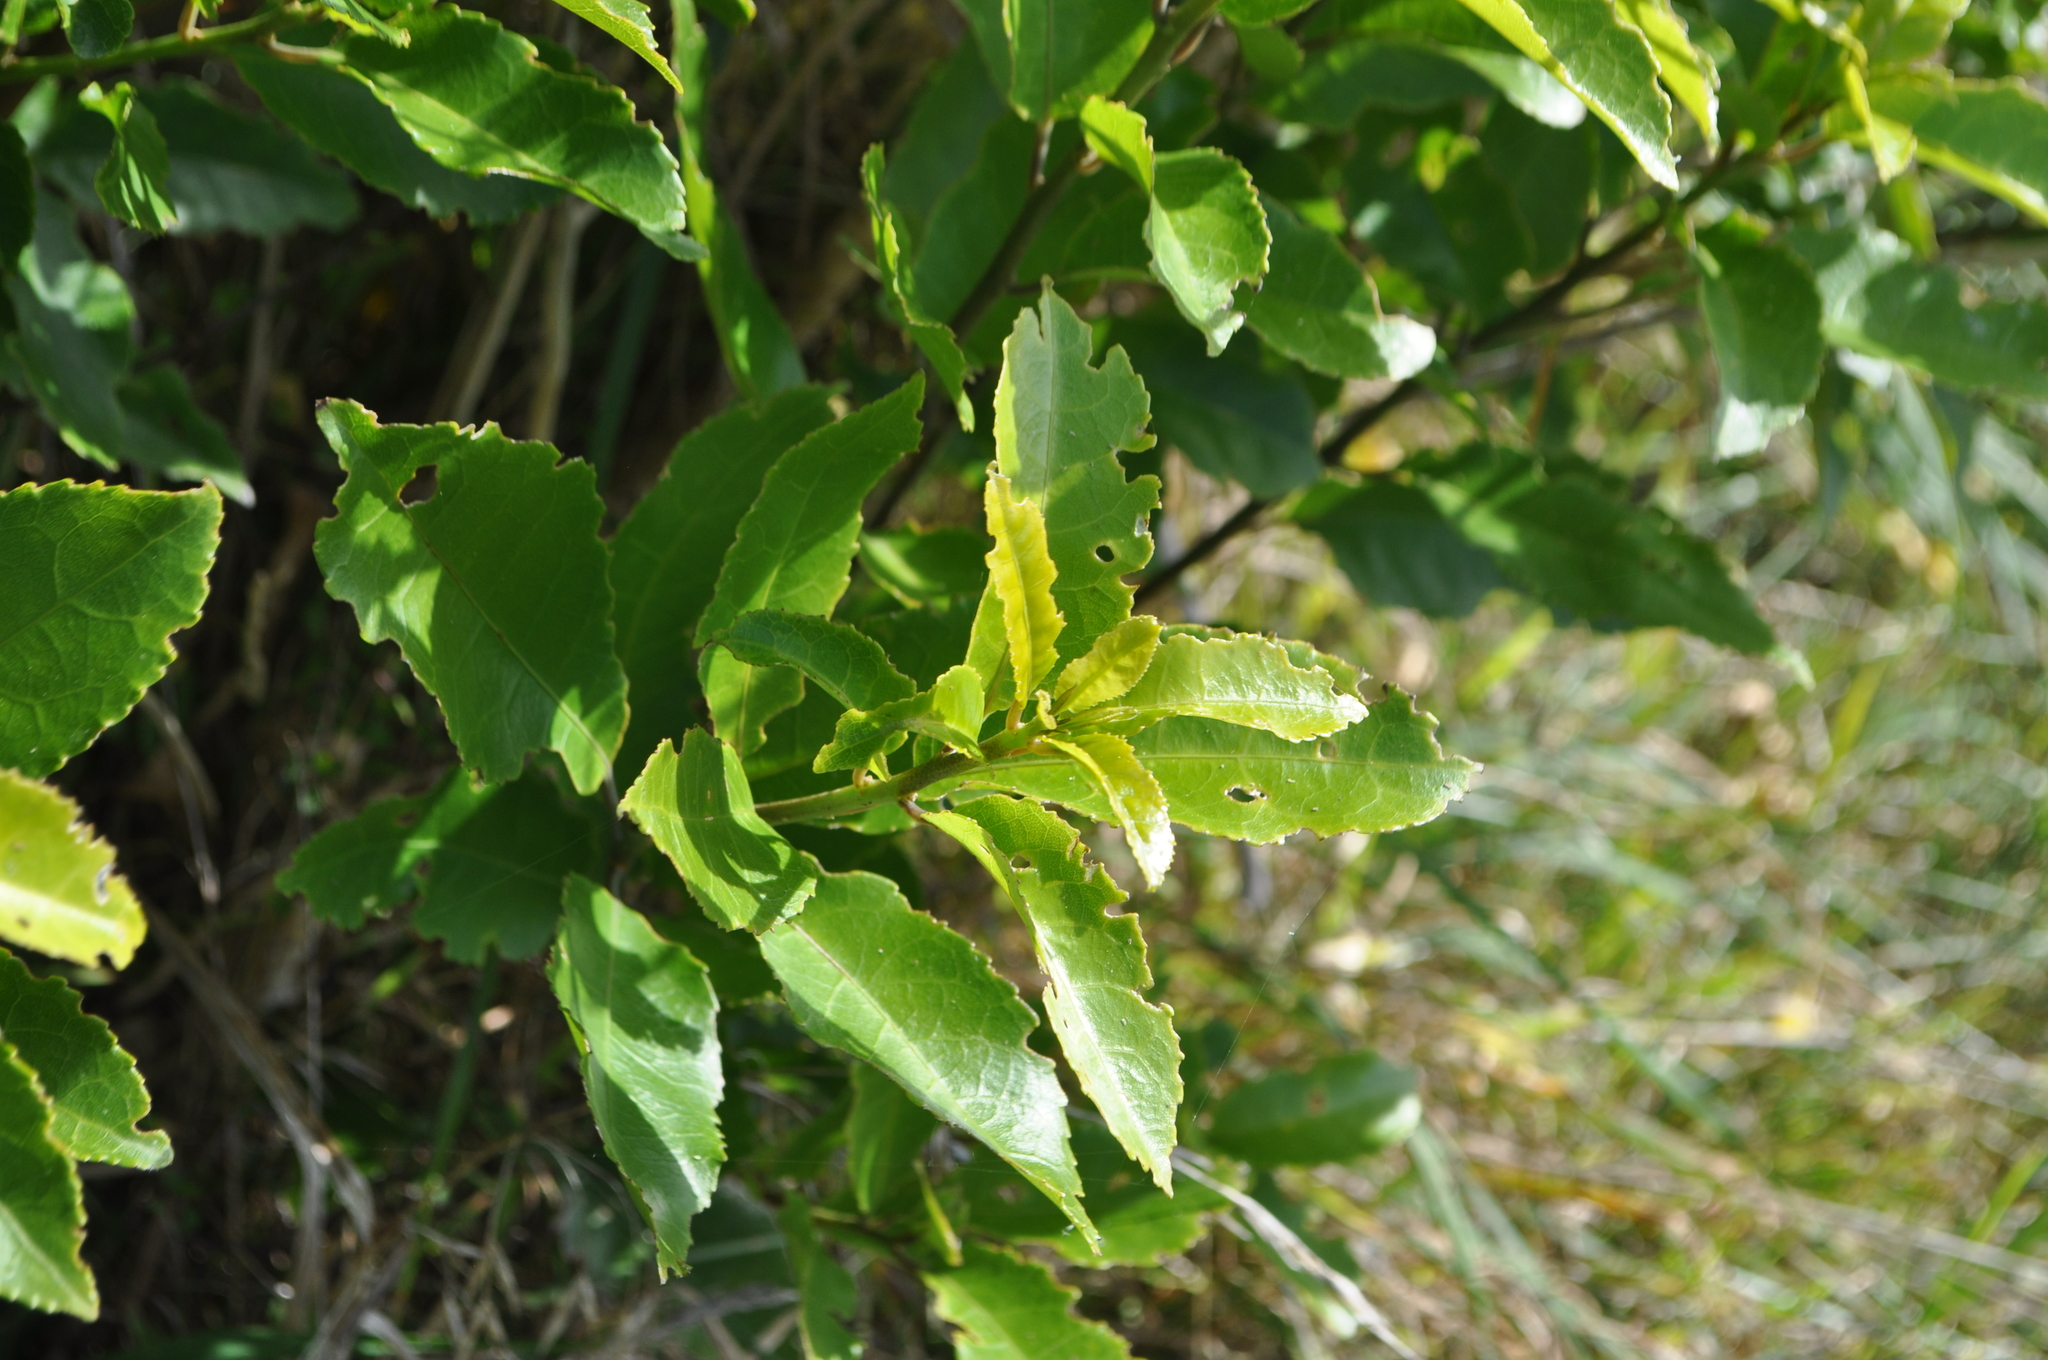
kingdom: Plantae
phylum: Tracheophyta
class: Magnoliopsida
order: Malpighiales
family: Violaceae
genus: Melicytus
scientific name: Melicytus ramiflorus
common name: Mahoe
